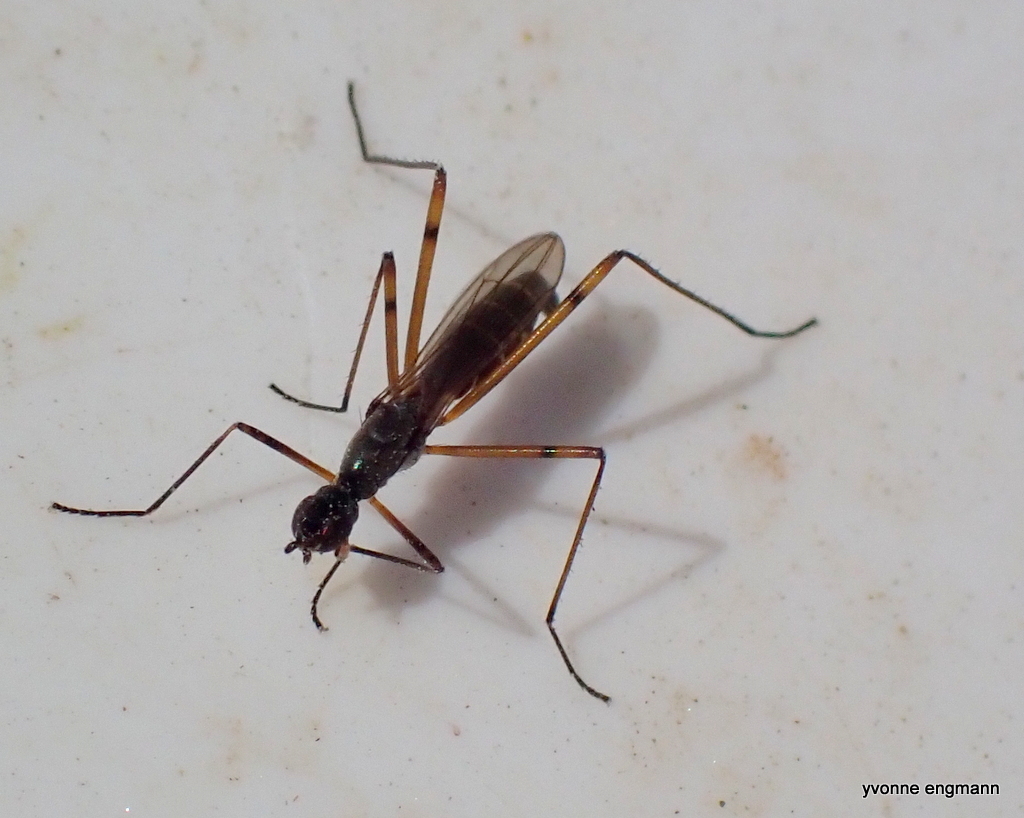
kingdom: Animalia
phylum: Arthropoda
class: Insecta
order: Diptera
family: Micropezidae
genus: Micropeza
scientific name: Micropeza corrigiolata
